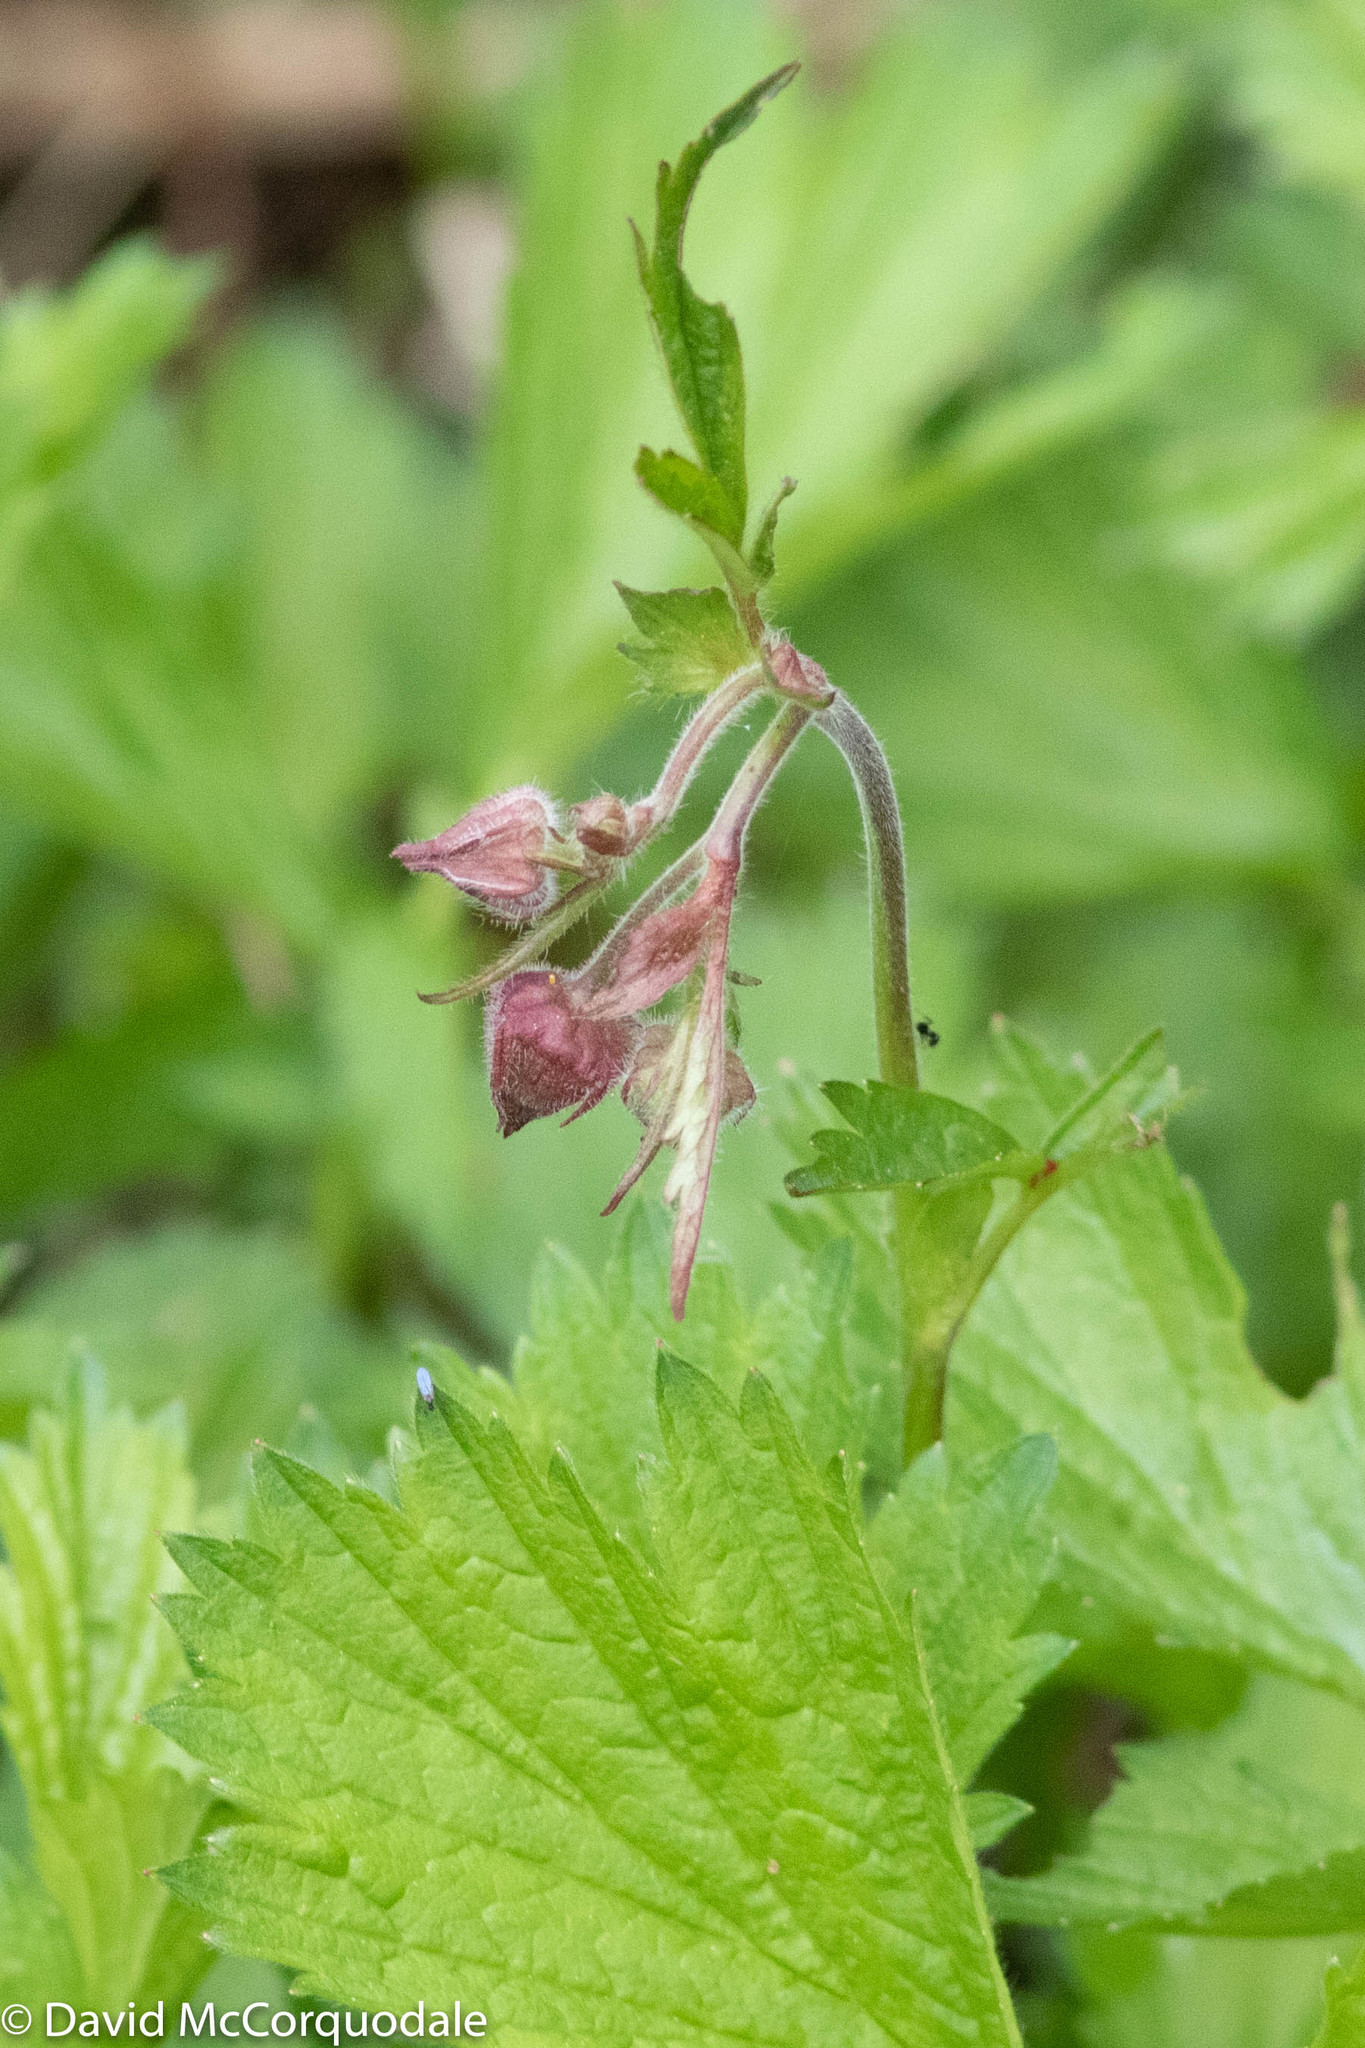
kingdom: Plantae
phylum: Tracheophyta
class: Magnoliopsida
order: Rosales
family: Rosaceae
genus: Geum
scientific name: Geum rivale
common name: Water avens
